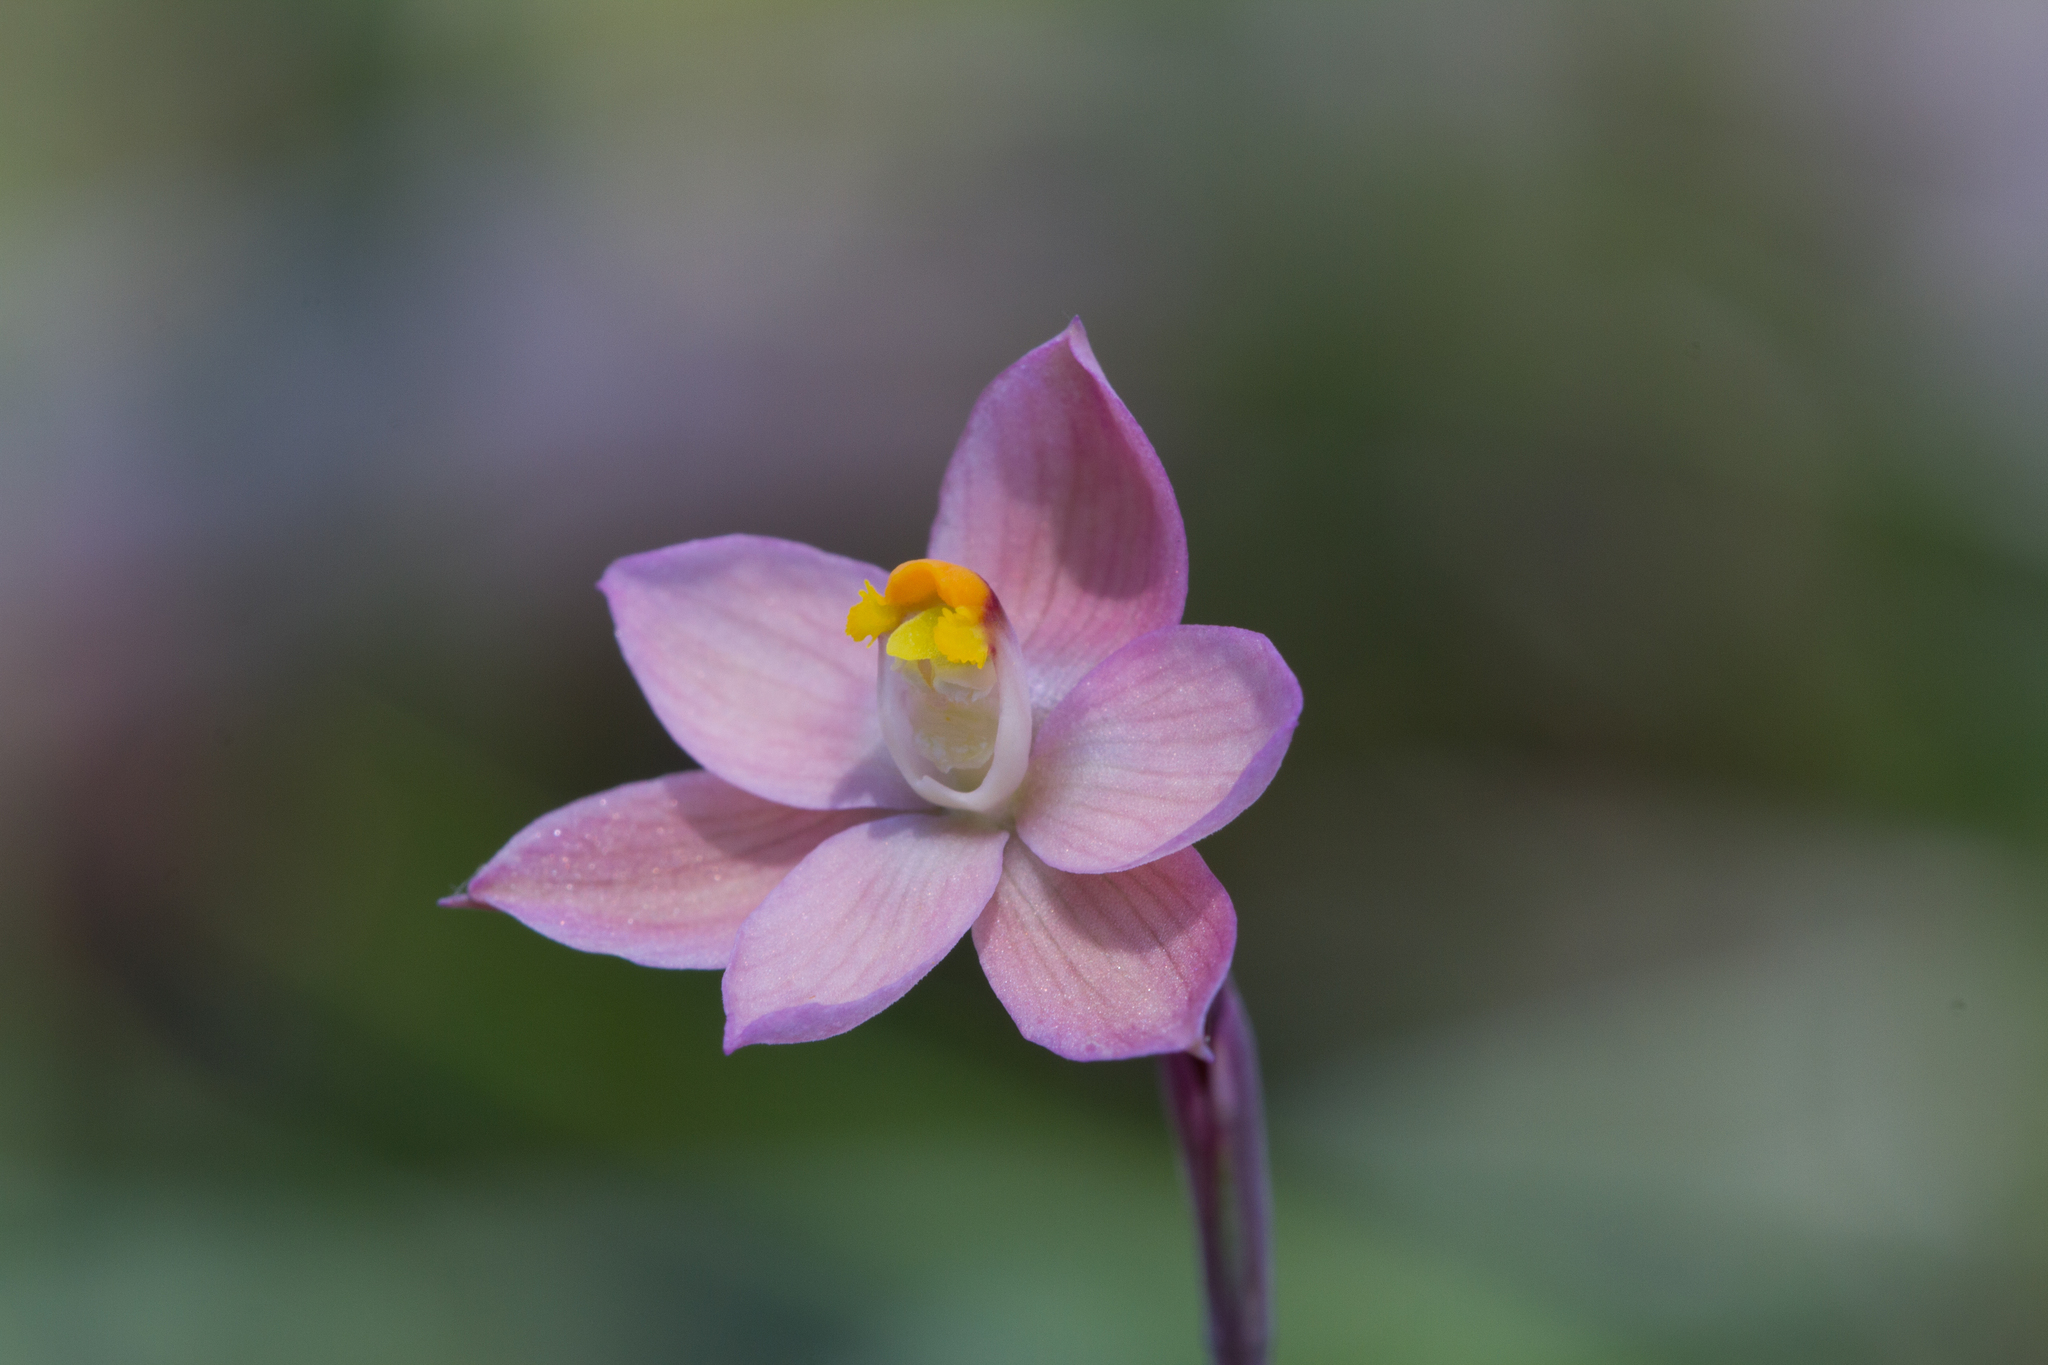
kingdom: Plantae
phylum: Tracheophyta
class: Liliopsida
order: Asparagales
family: Orchidaceae
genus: Thelymitra
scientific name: Thelymitra rubra
